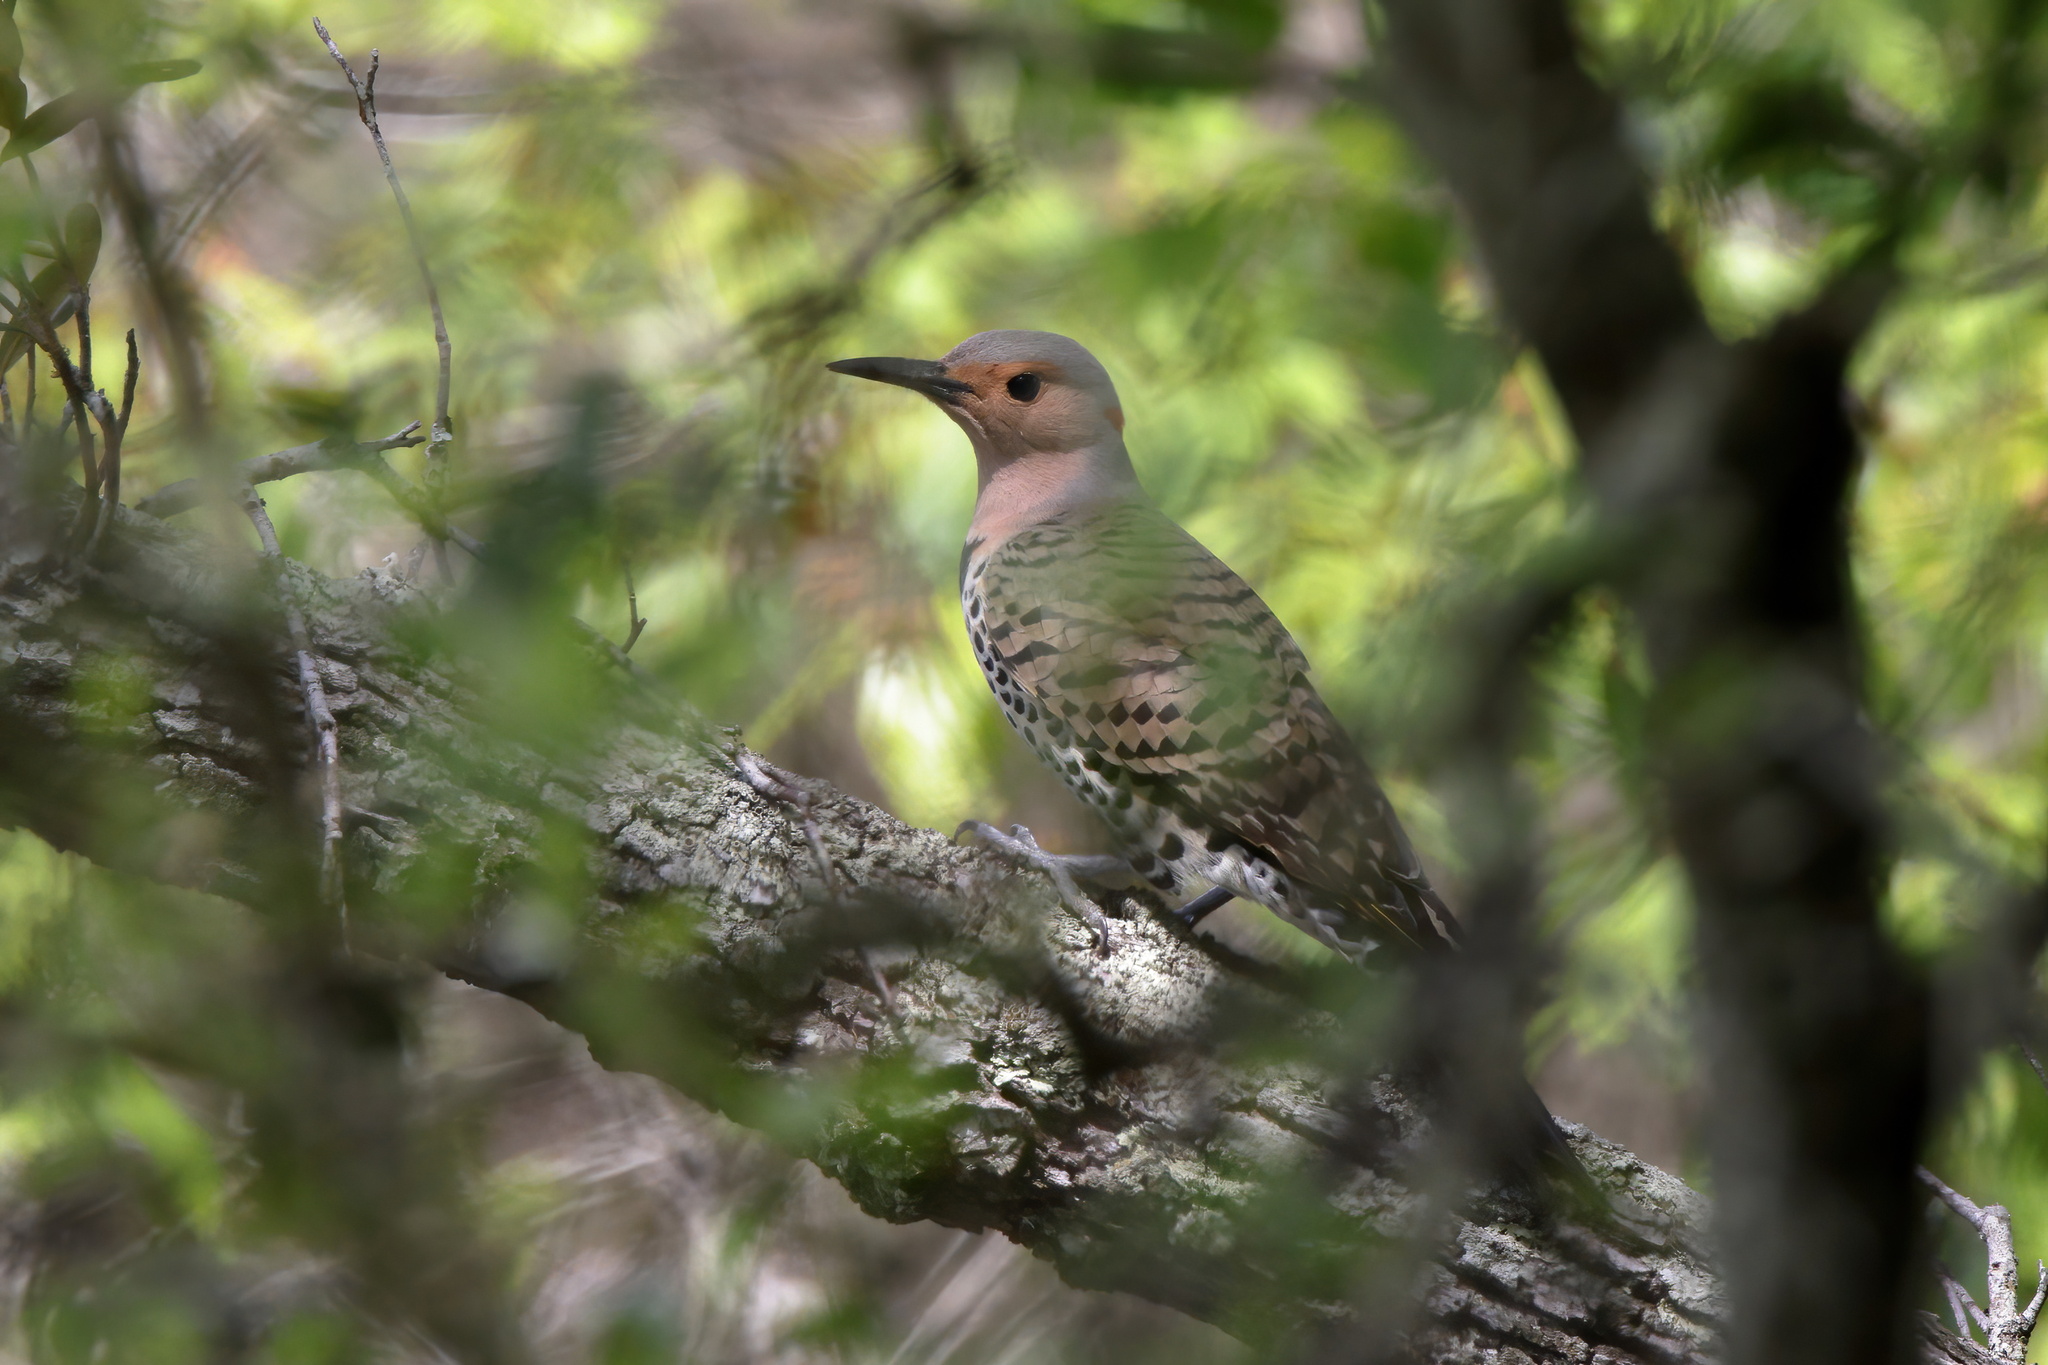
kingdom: Animalia
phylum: Chordata
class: Aves
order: Piciformes
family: Picidae
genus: Colaptes
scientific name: Colaptes auratus
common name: Northern flicker
